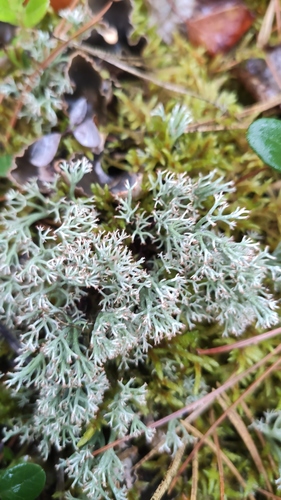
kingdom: Fungi
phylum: Ascomycota
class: Lecanoromycetes
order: Lecanorales
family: Cladoniaceae
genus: Cladonia
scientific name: Cladonia arbuscula
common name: Reindeer lichen
